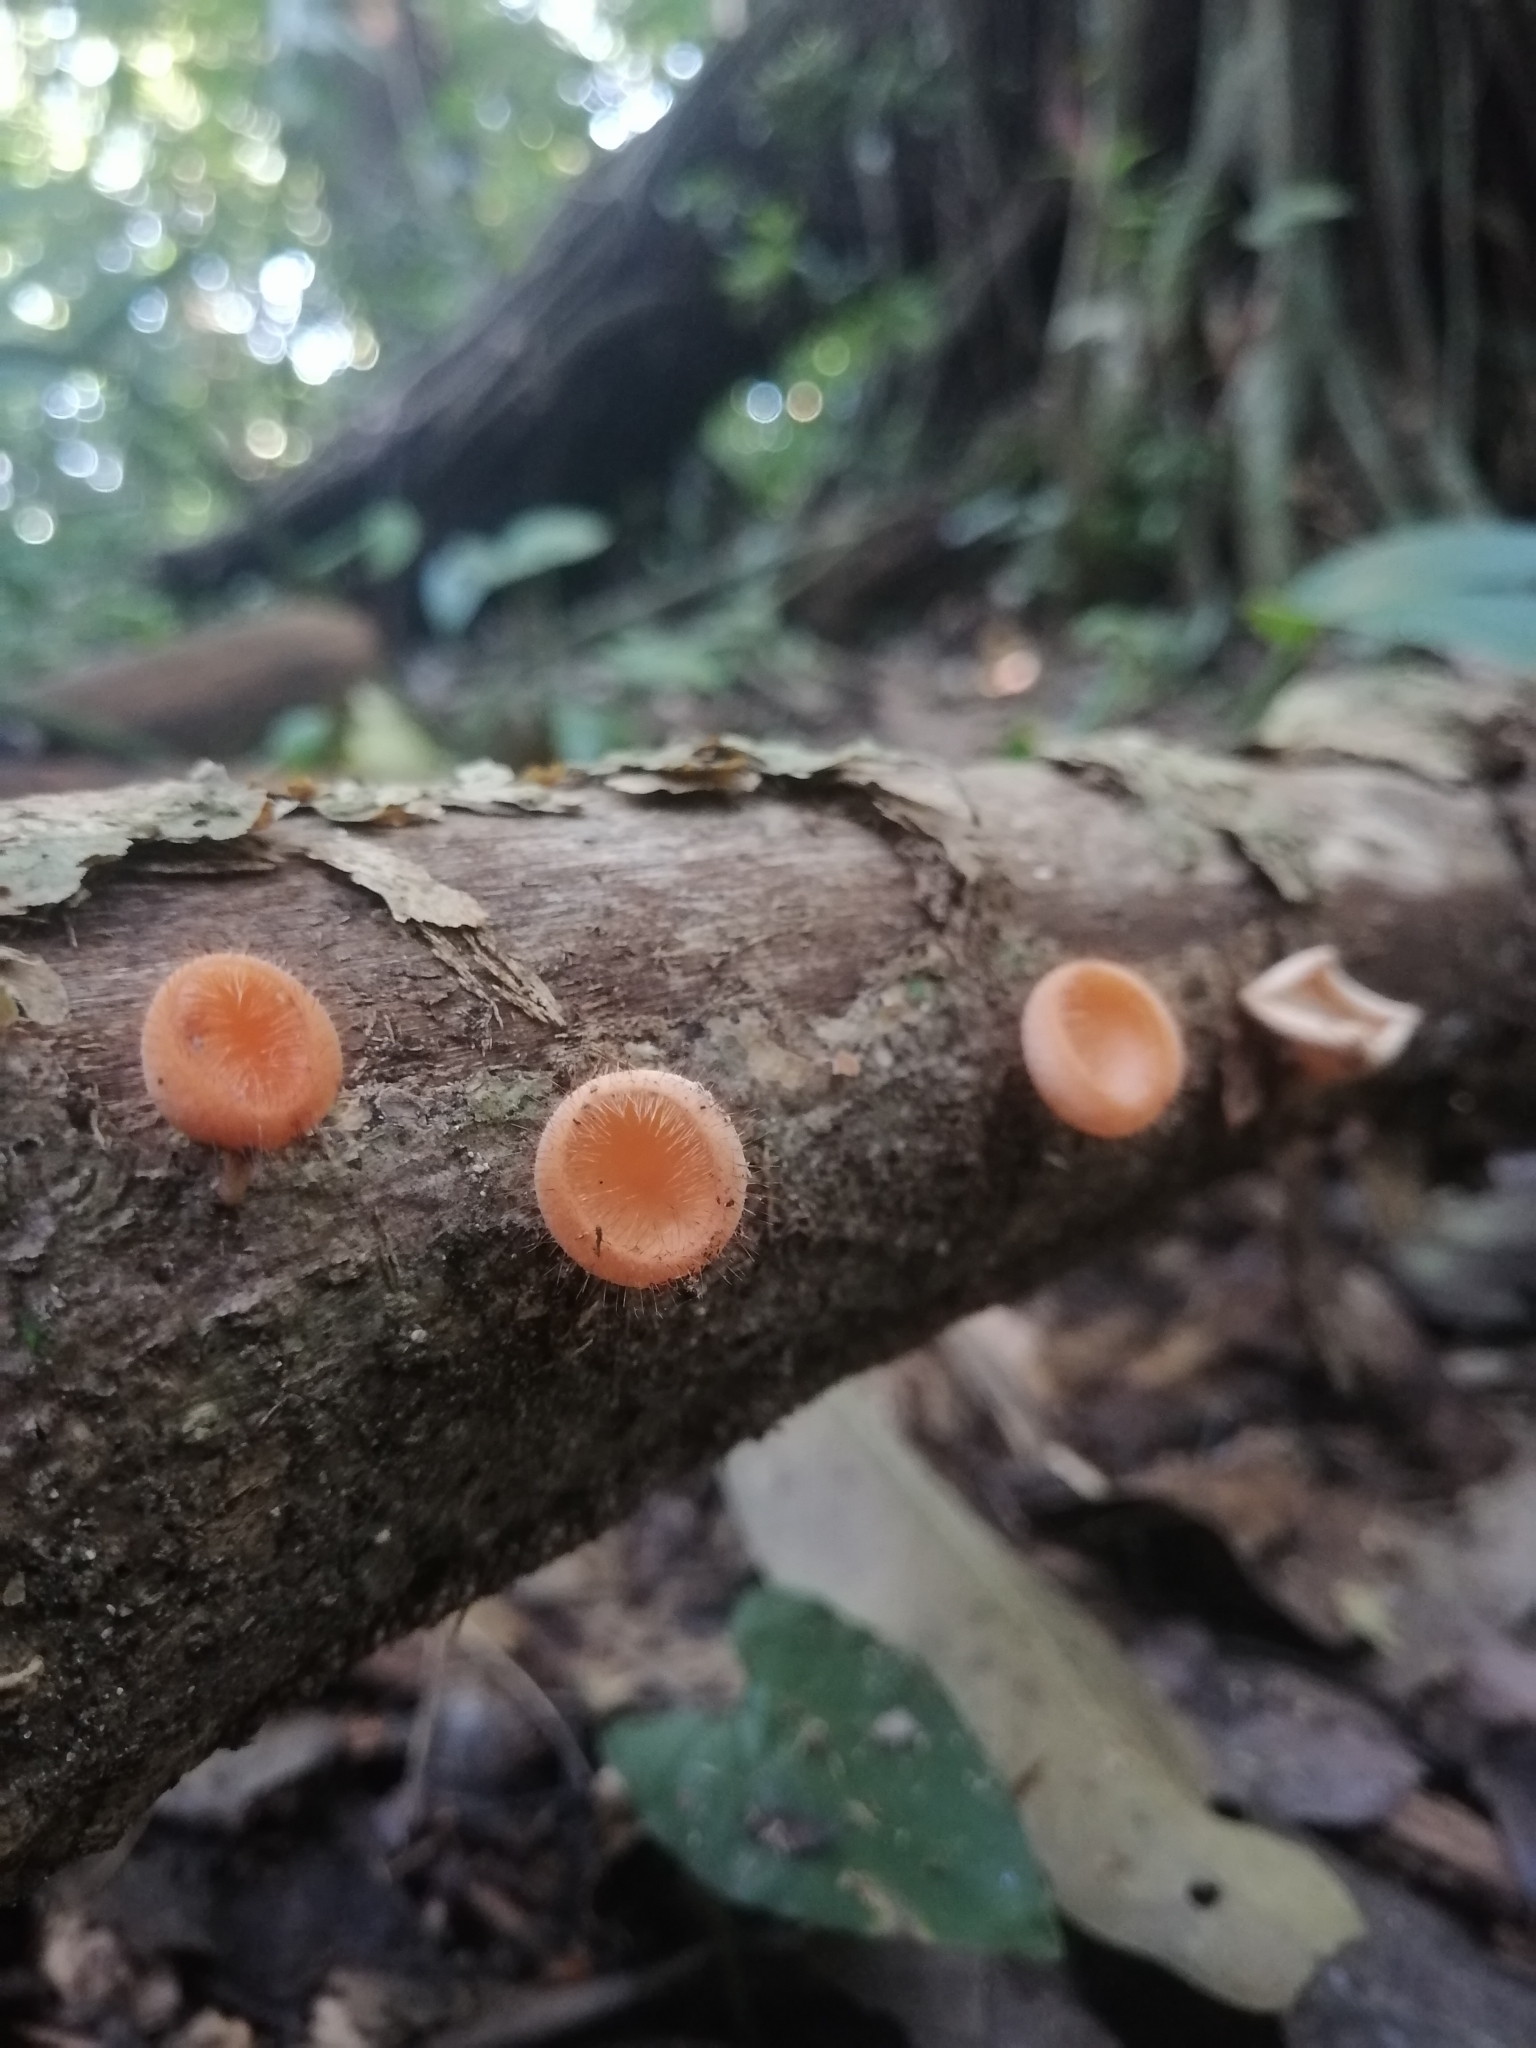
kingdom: Fungi
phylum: Ascomycota
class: Pezizomycetes
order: Pezizales
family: Sarcoscyphaceae
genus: Cookeina
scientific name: Cookeina tricholoma
